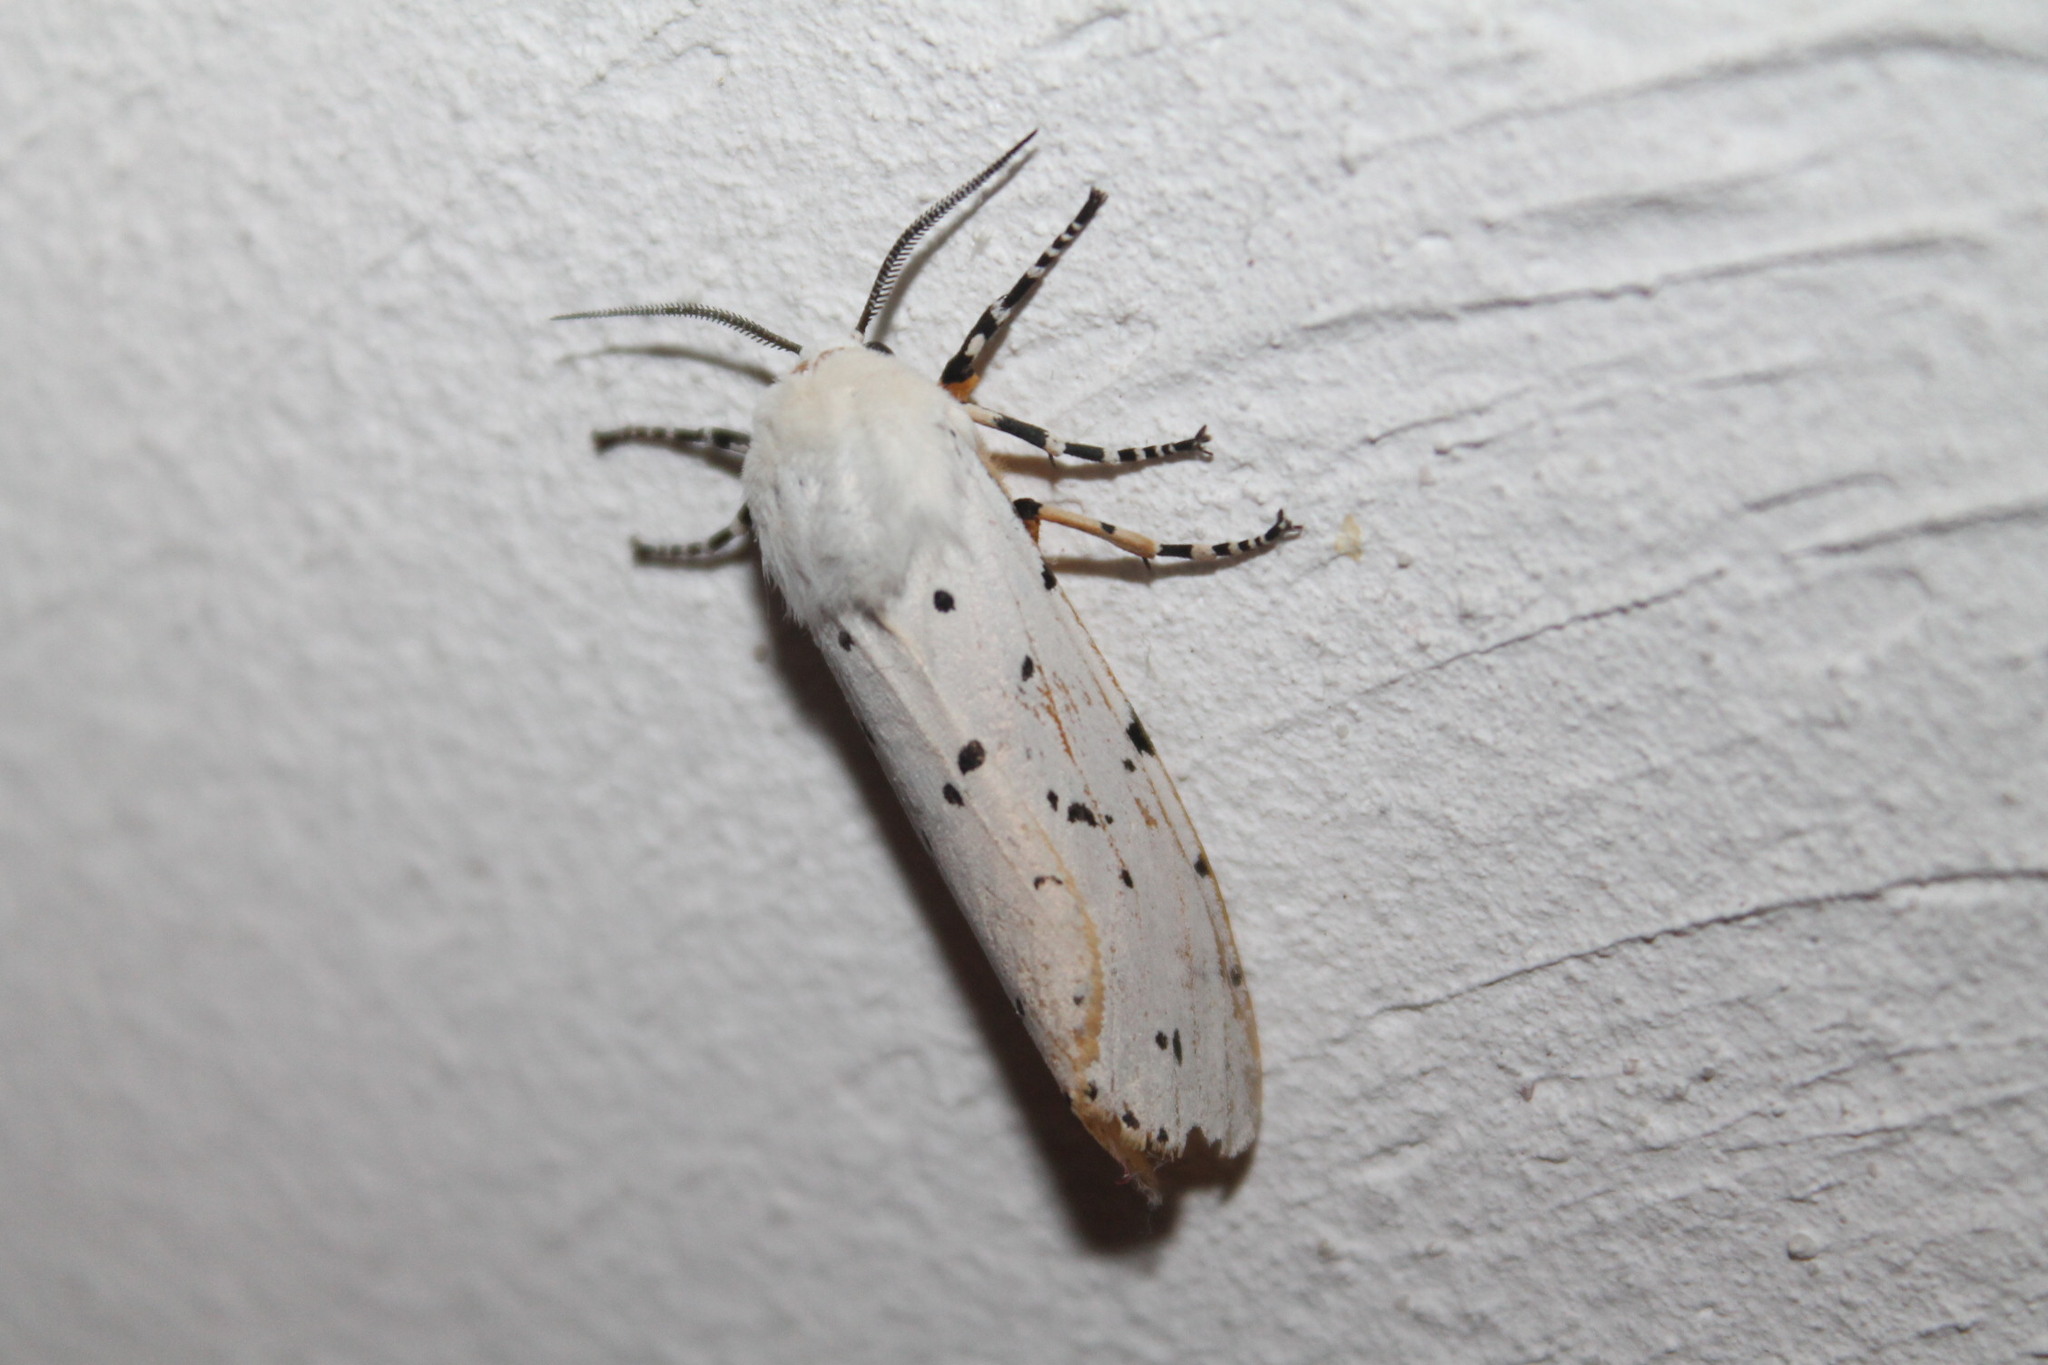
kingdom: Animalia
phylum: Arthropoda
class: Insecta
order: Lepidoptera
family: Erebidae
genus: Estigmene
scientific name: Estigmene acrea
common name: Salt marsh moth
